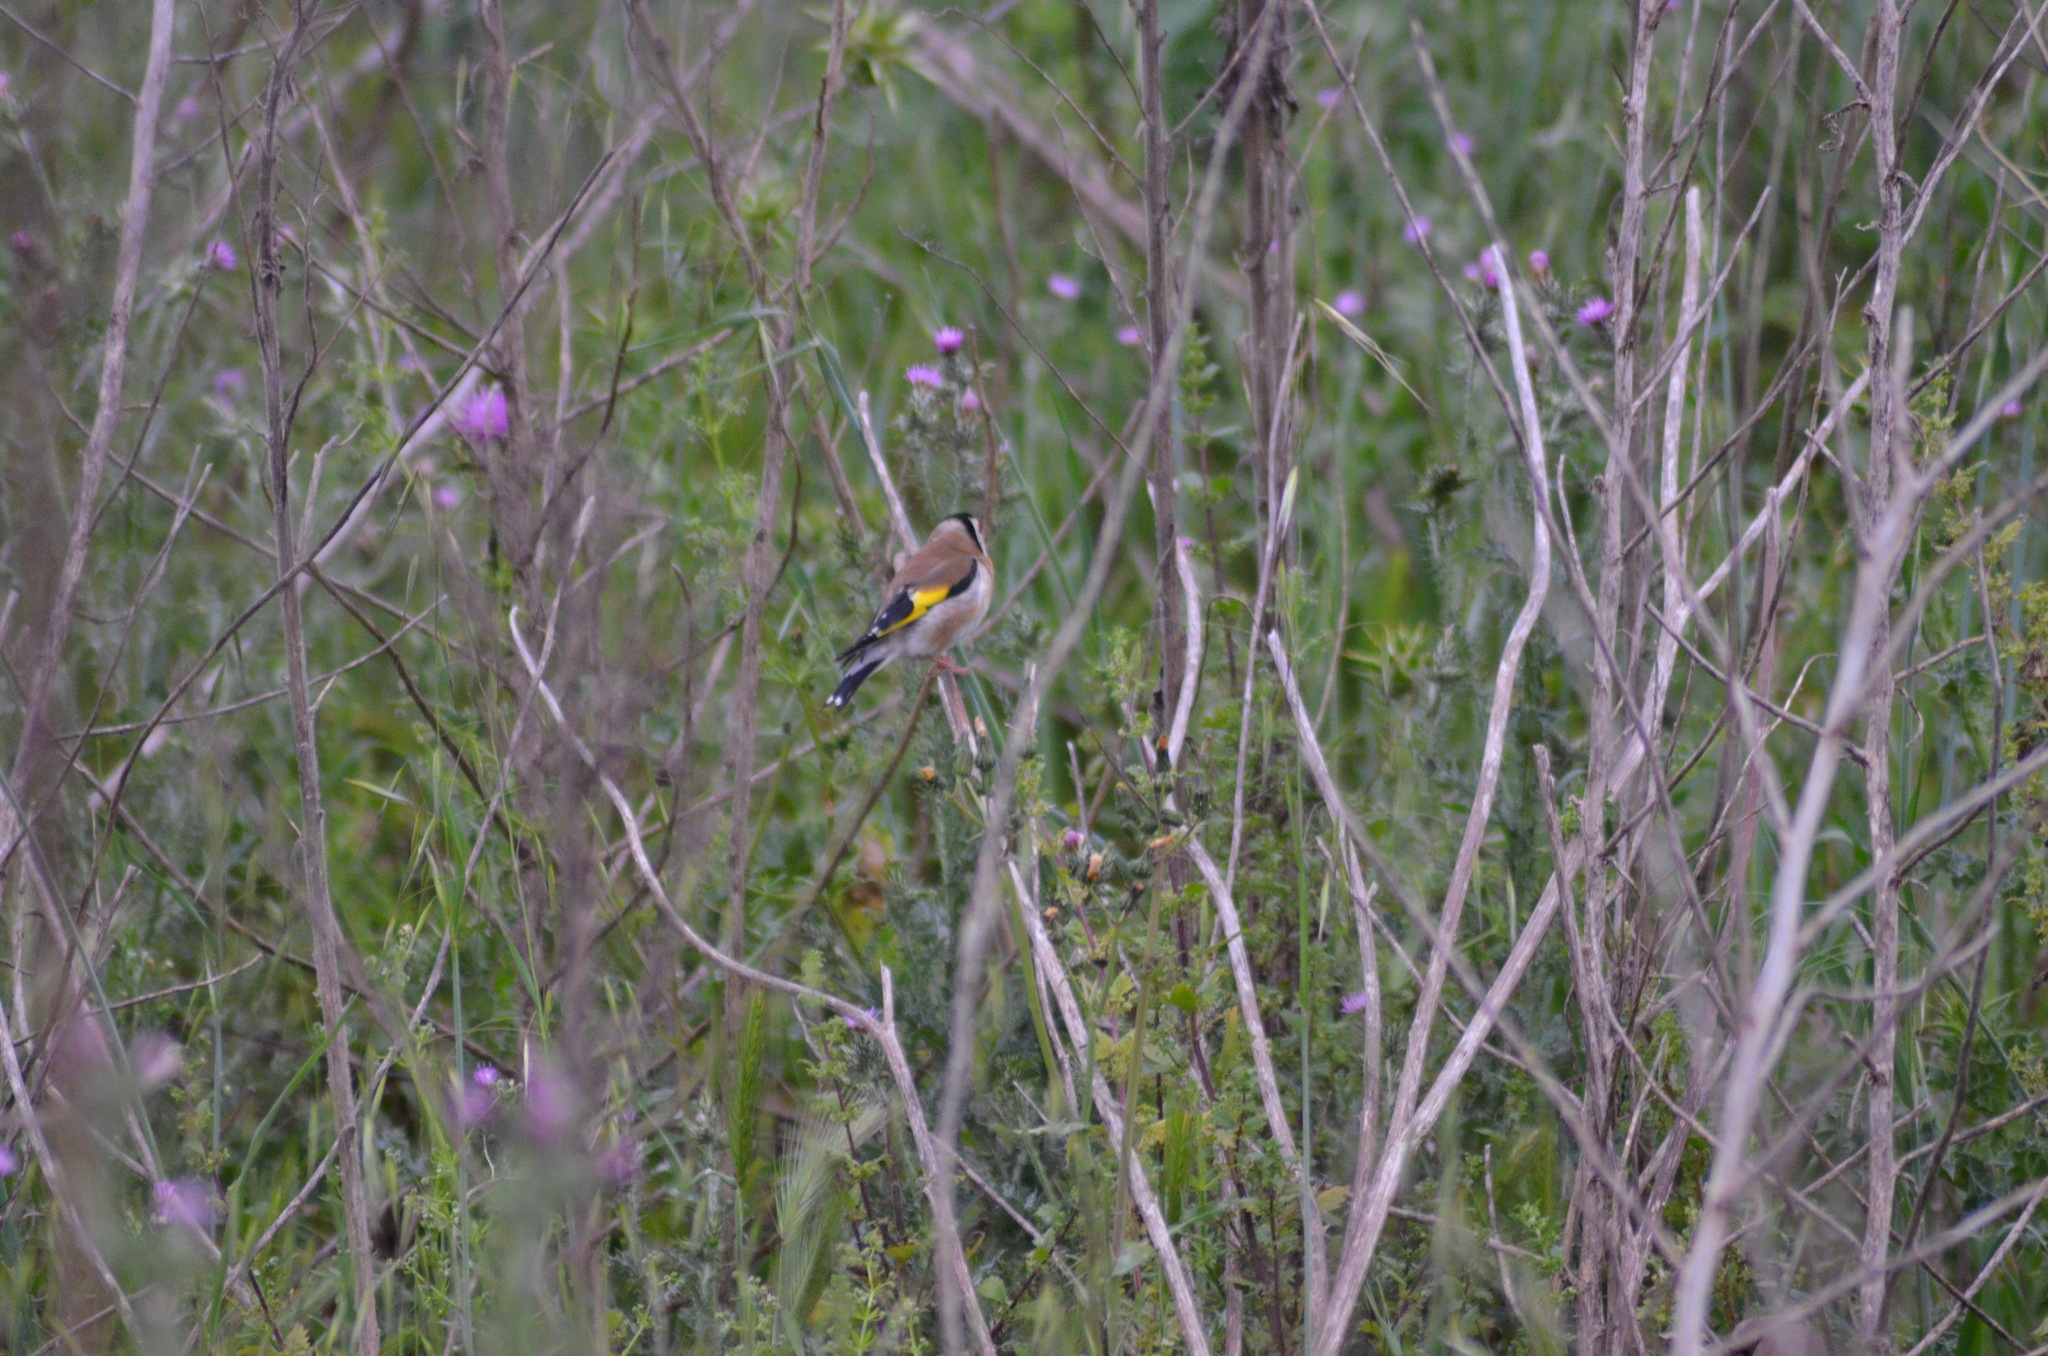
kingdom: Animalia
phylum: Chordata
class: Aves
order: Passeriformes
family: Fringillidae
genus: Carduelis
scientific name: Carduelis carduelis
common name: European goldfinch
